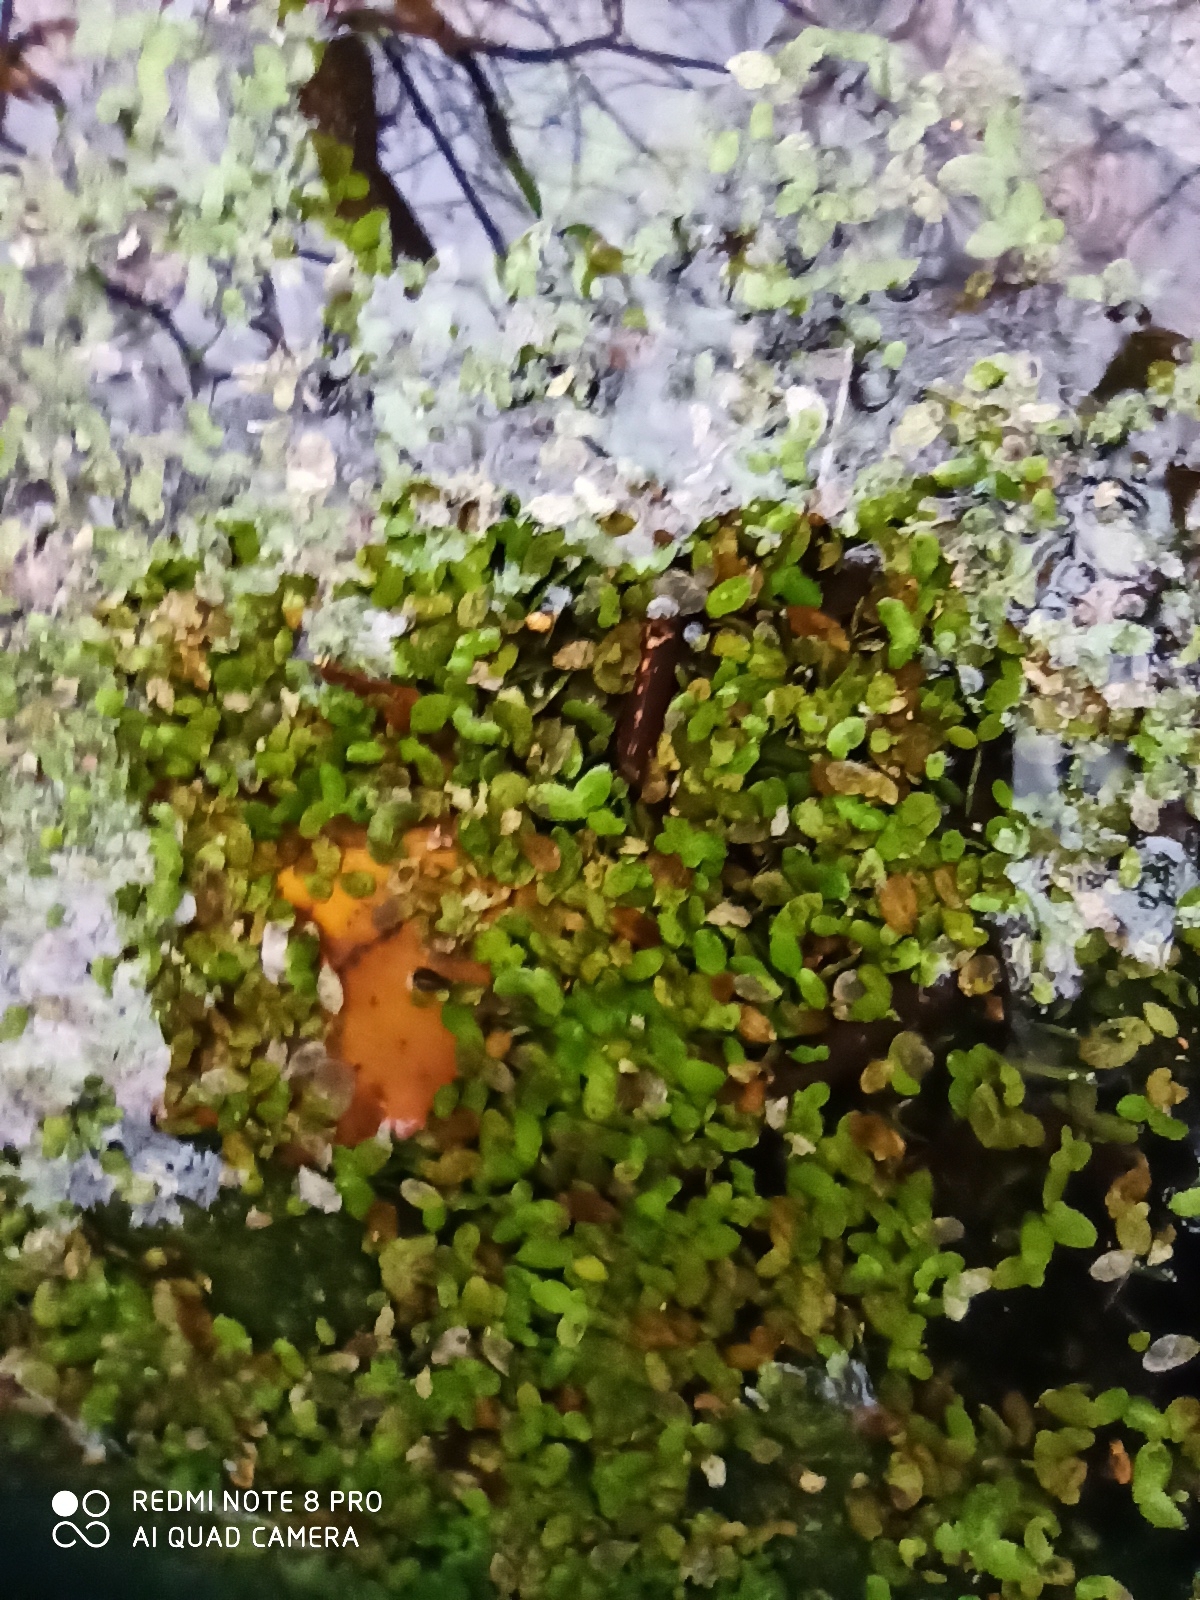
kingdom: Plantae
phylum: Tracheophyta
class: Liliopsida
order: Alismatales
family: Araceae
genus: Lemna
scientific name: Lemna minor
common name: Common duckweed
